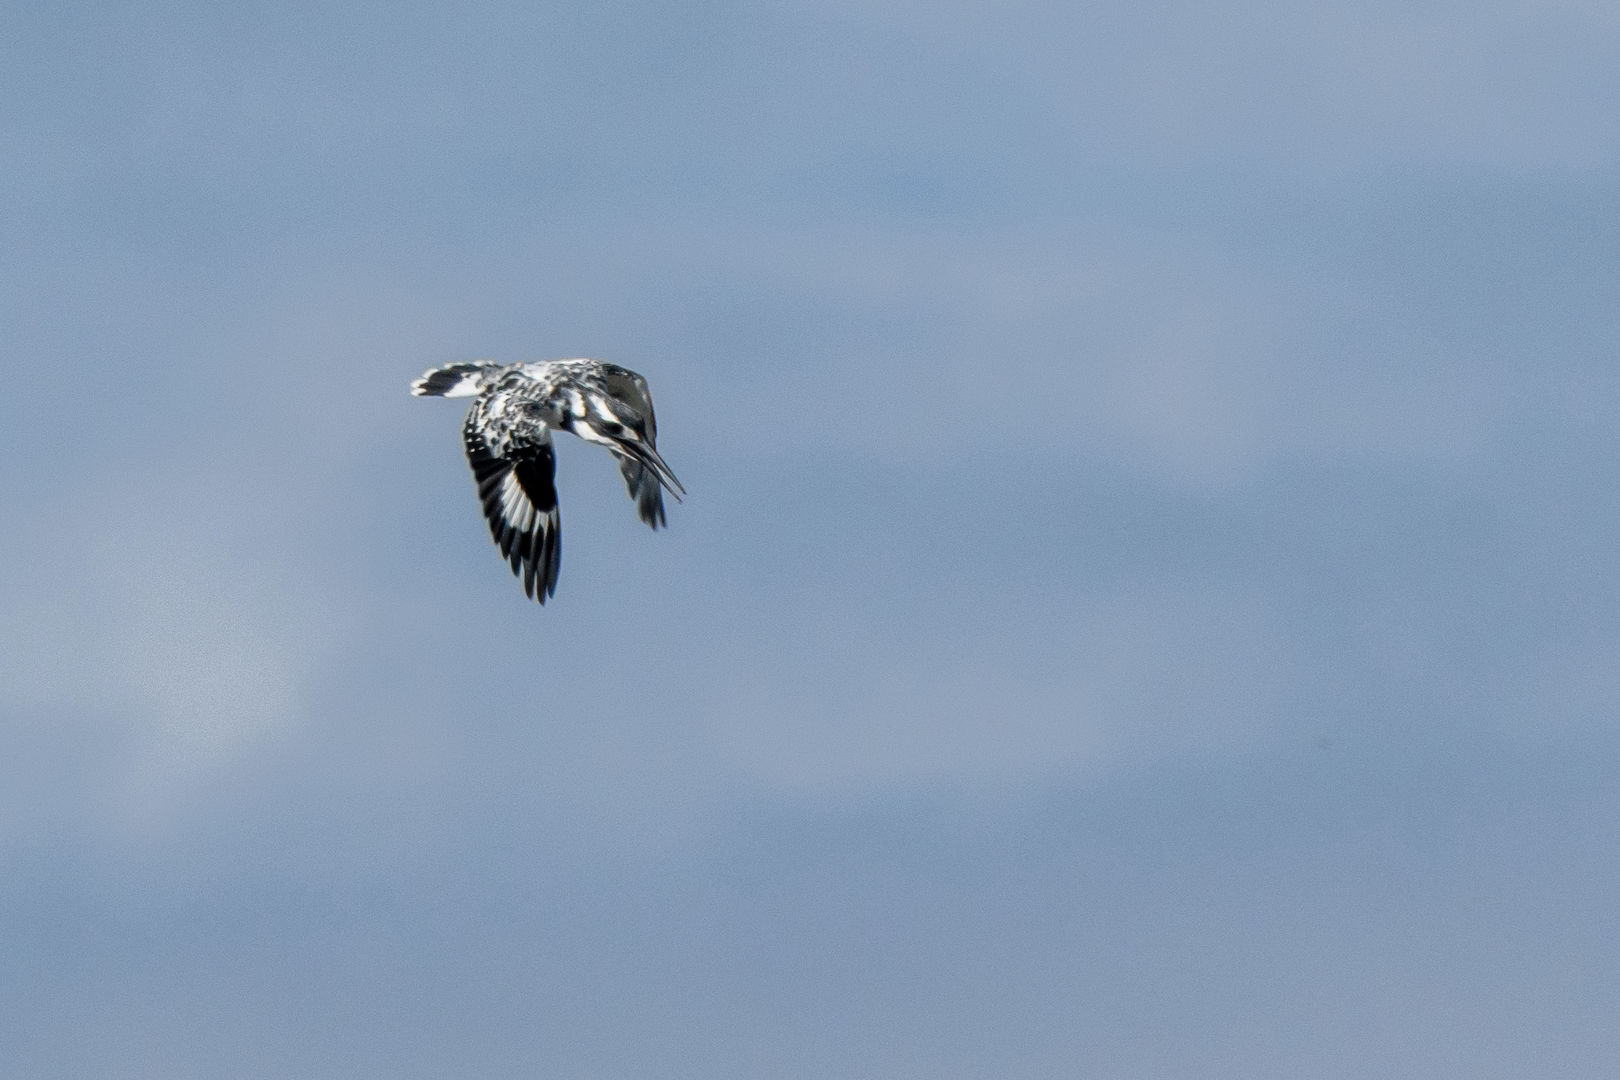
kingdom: Animalia
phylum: Chordata
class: Aves
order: Coraciiformes
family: Alcedinidae
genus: Ceryle
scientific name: Ceryle rudis
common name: Pied kingfisher
